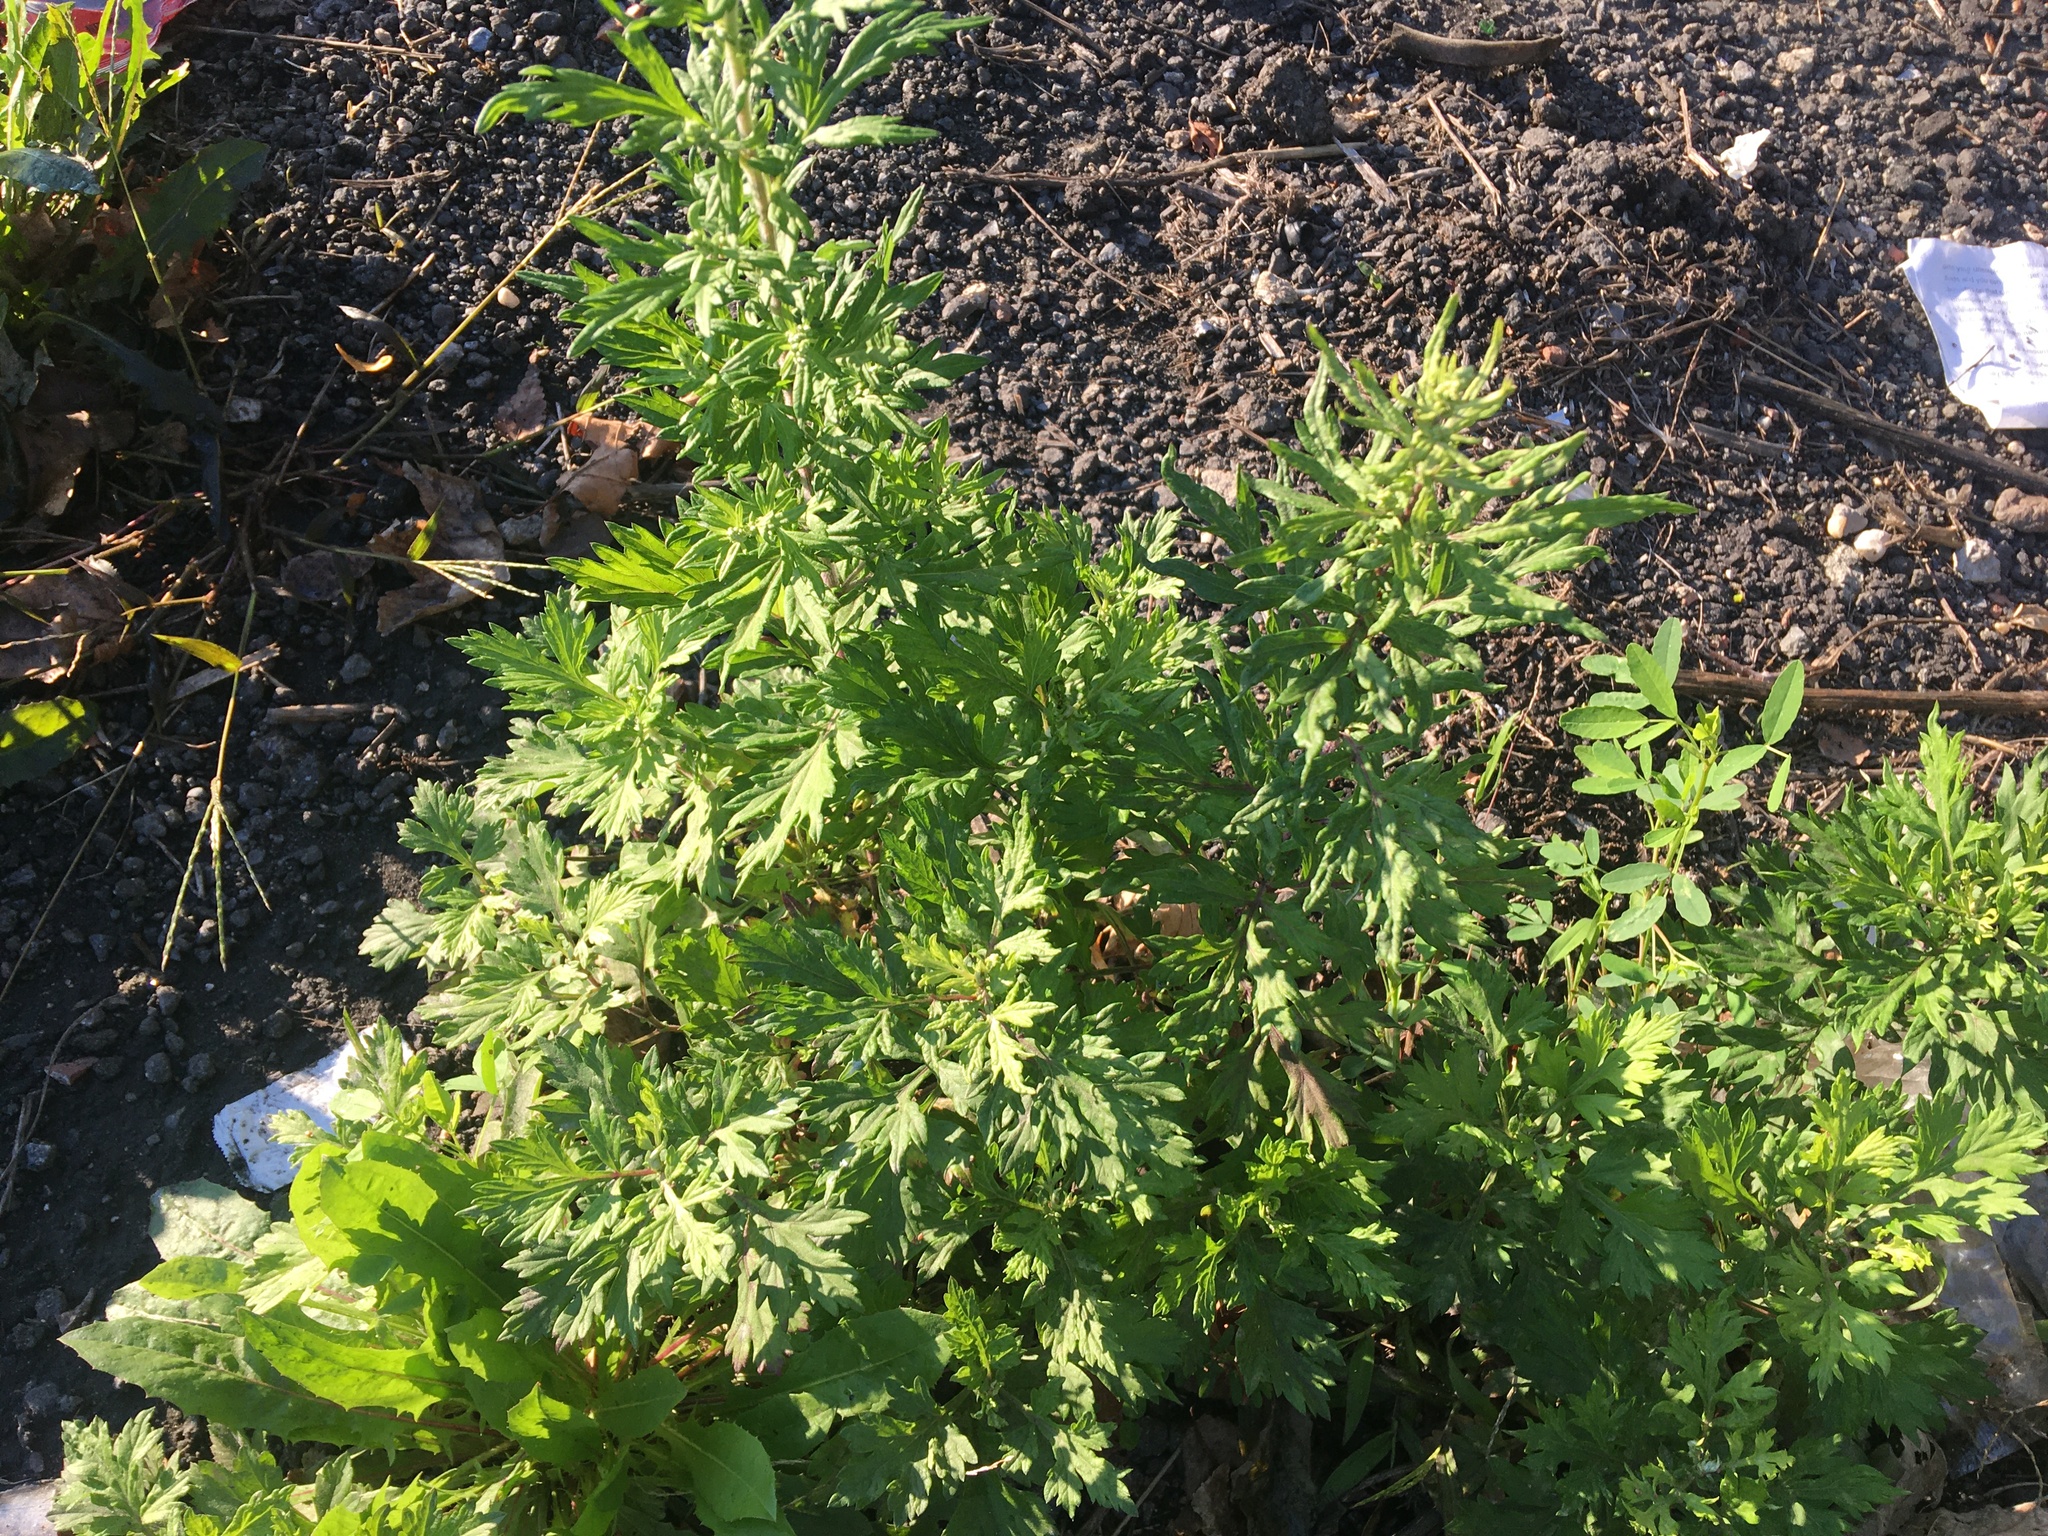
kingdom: Plantae
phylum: Tracheophyta
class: Magnoliopsida
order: Asterales
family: Asteraceae
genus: Artemisia
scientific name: Artemisia vulgaris
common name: Mugwort
